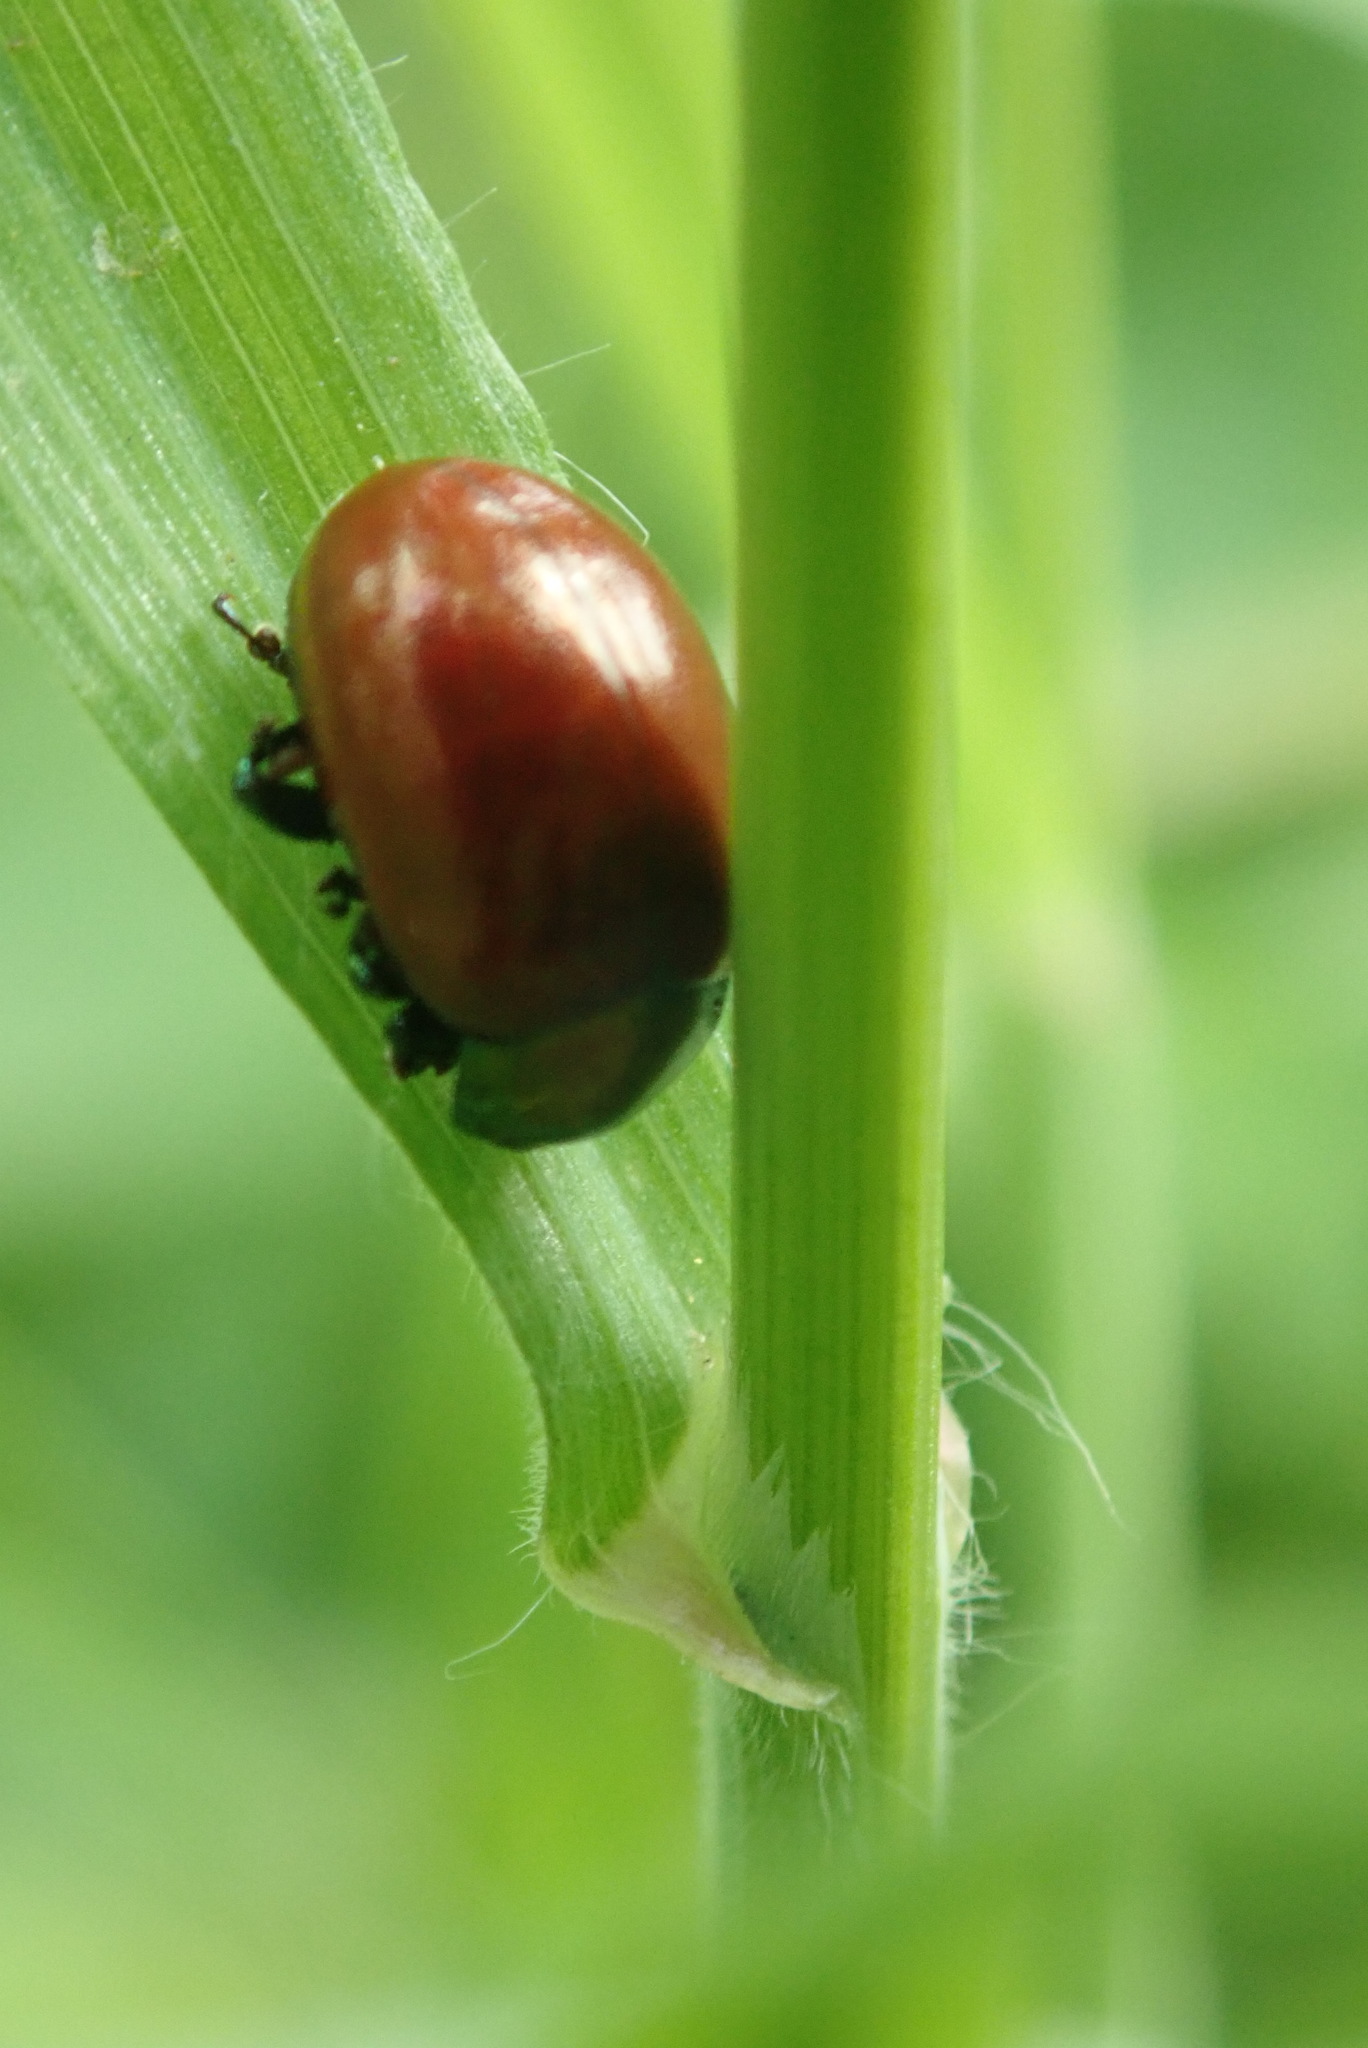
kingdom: Animalia
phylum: Arthropoda
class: Insecta
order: Coleoptera
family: Chrysomelidae
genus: Chrysomela
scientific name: Chrysomela polita
